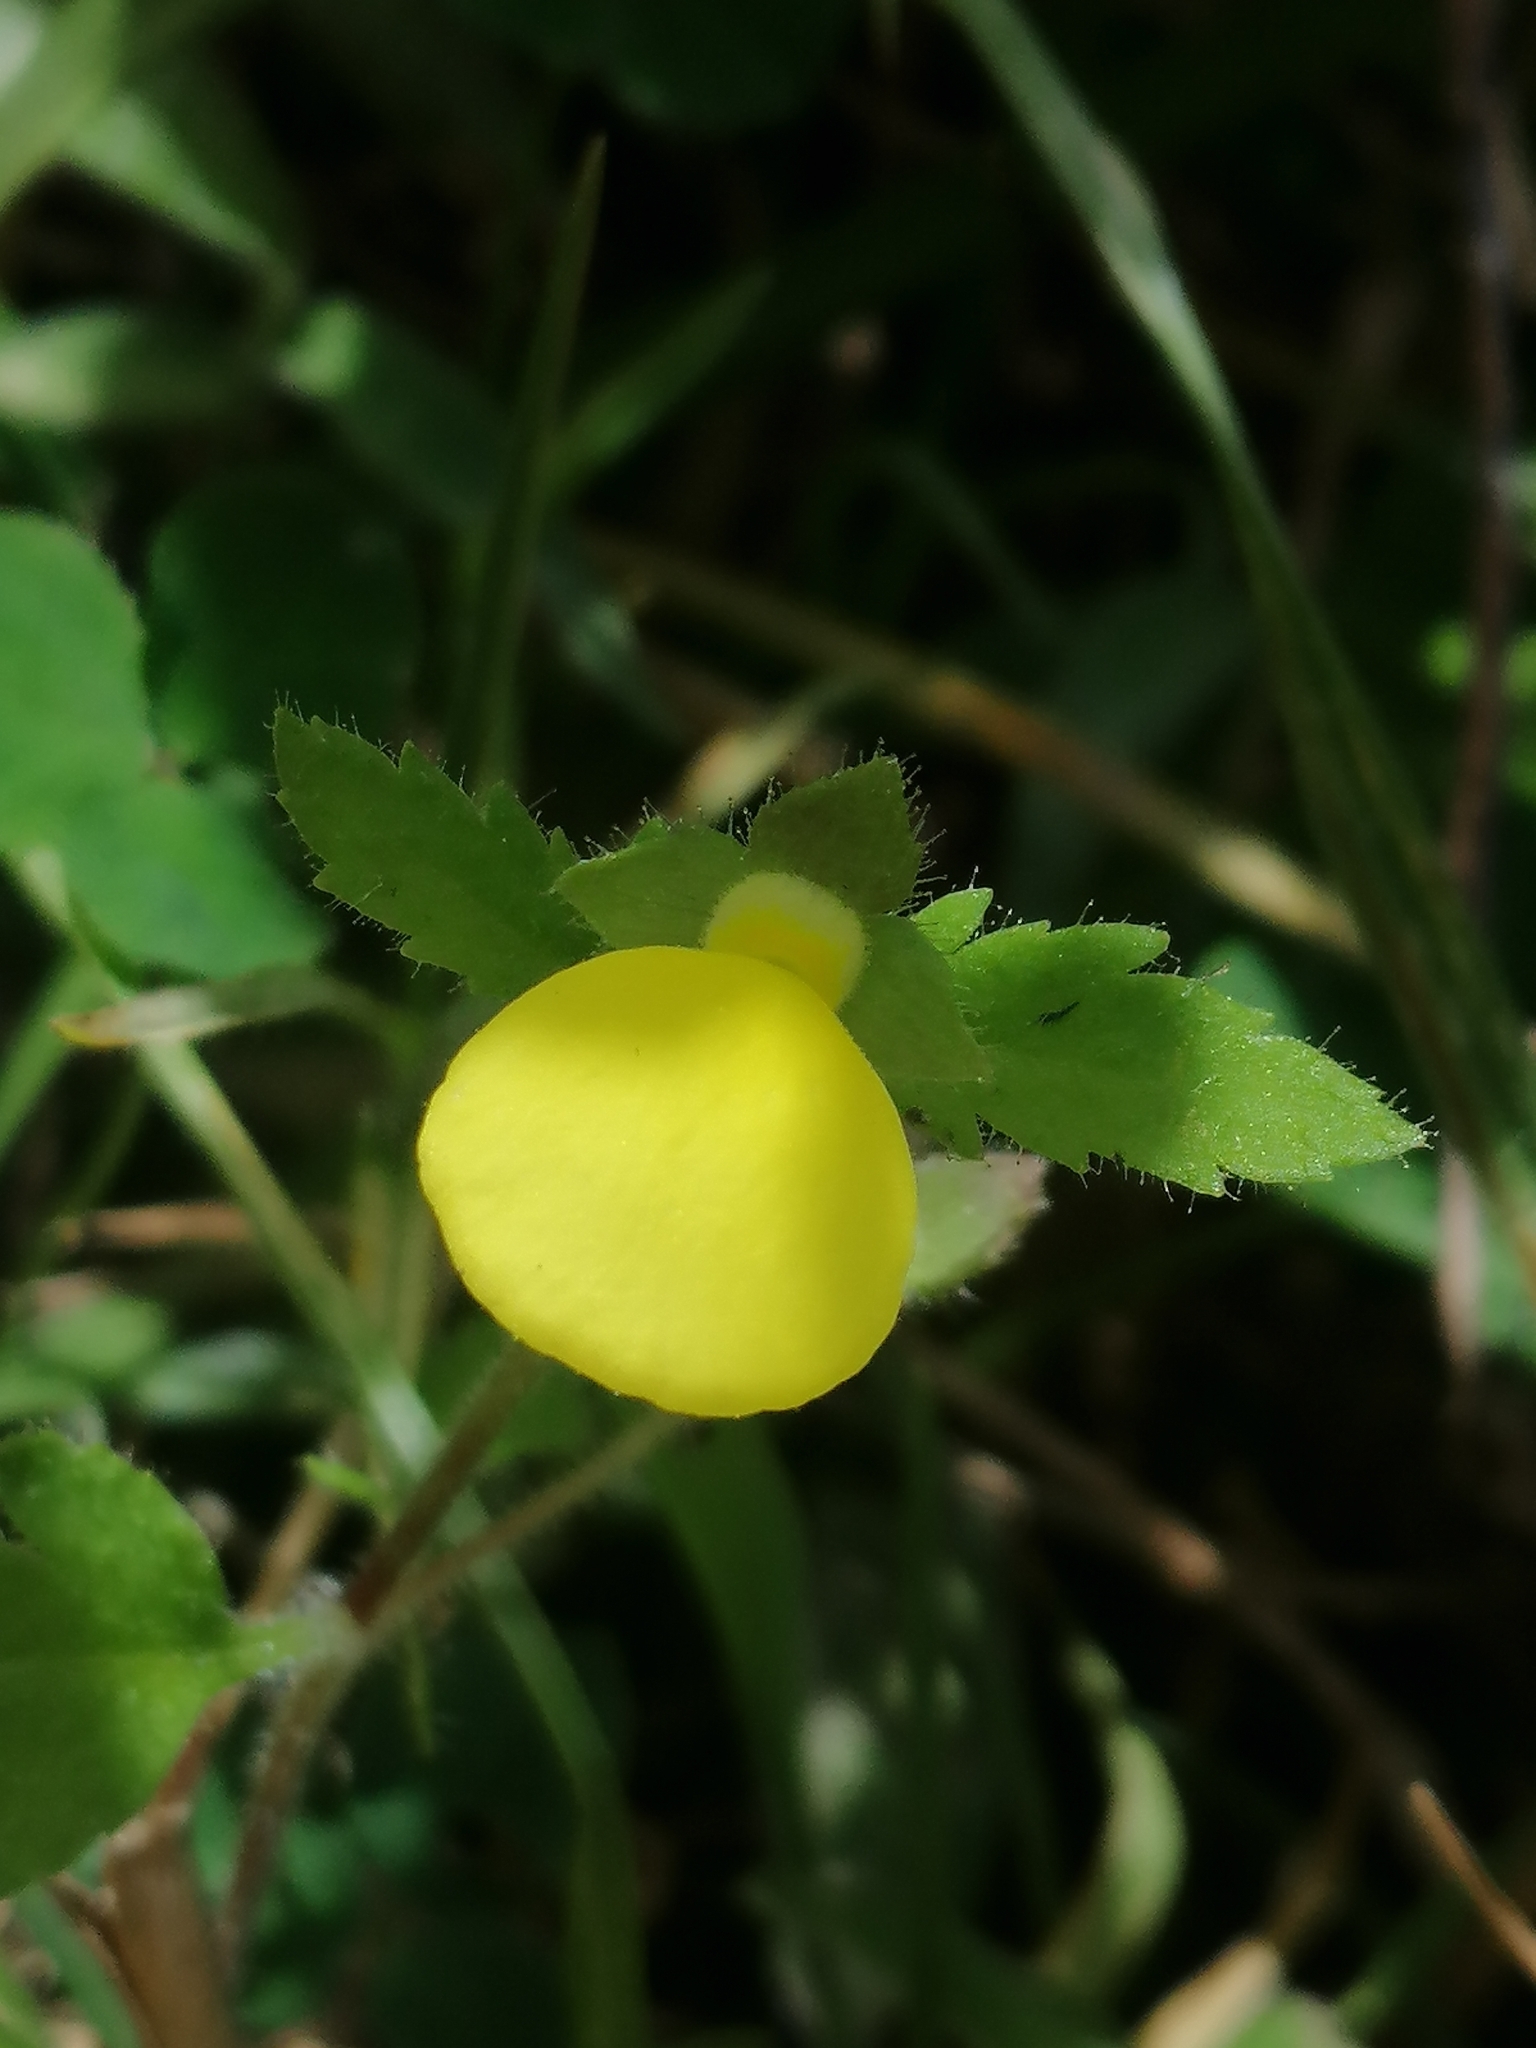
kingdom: Plantae
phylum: Tracheophyta
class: Magnoliopsida
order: Lamiales
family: Calceolariaceae
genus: Calceolaria
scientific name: Calceolaria tripartita
